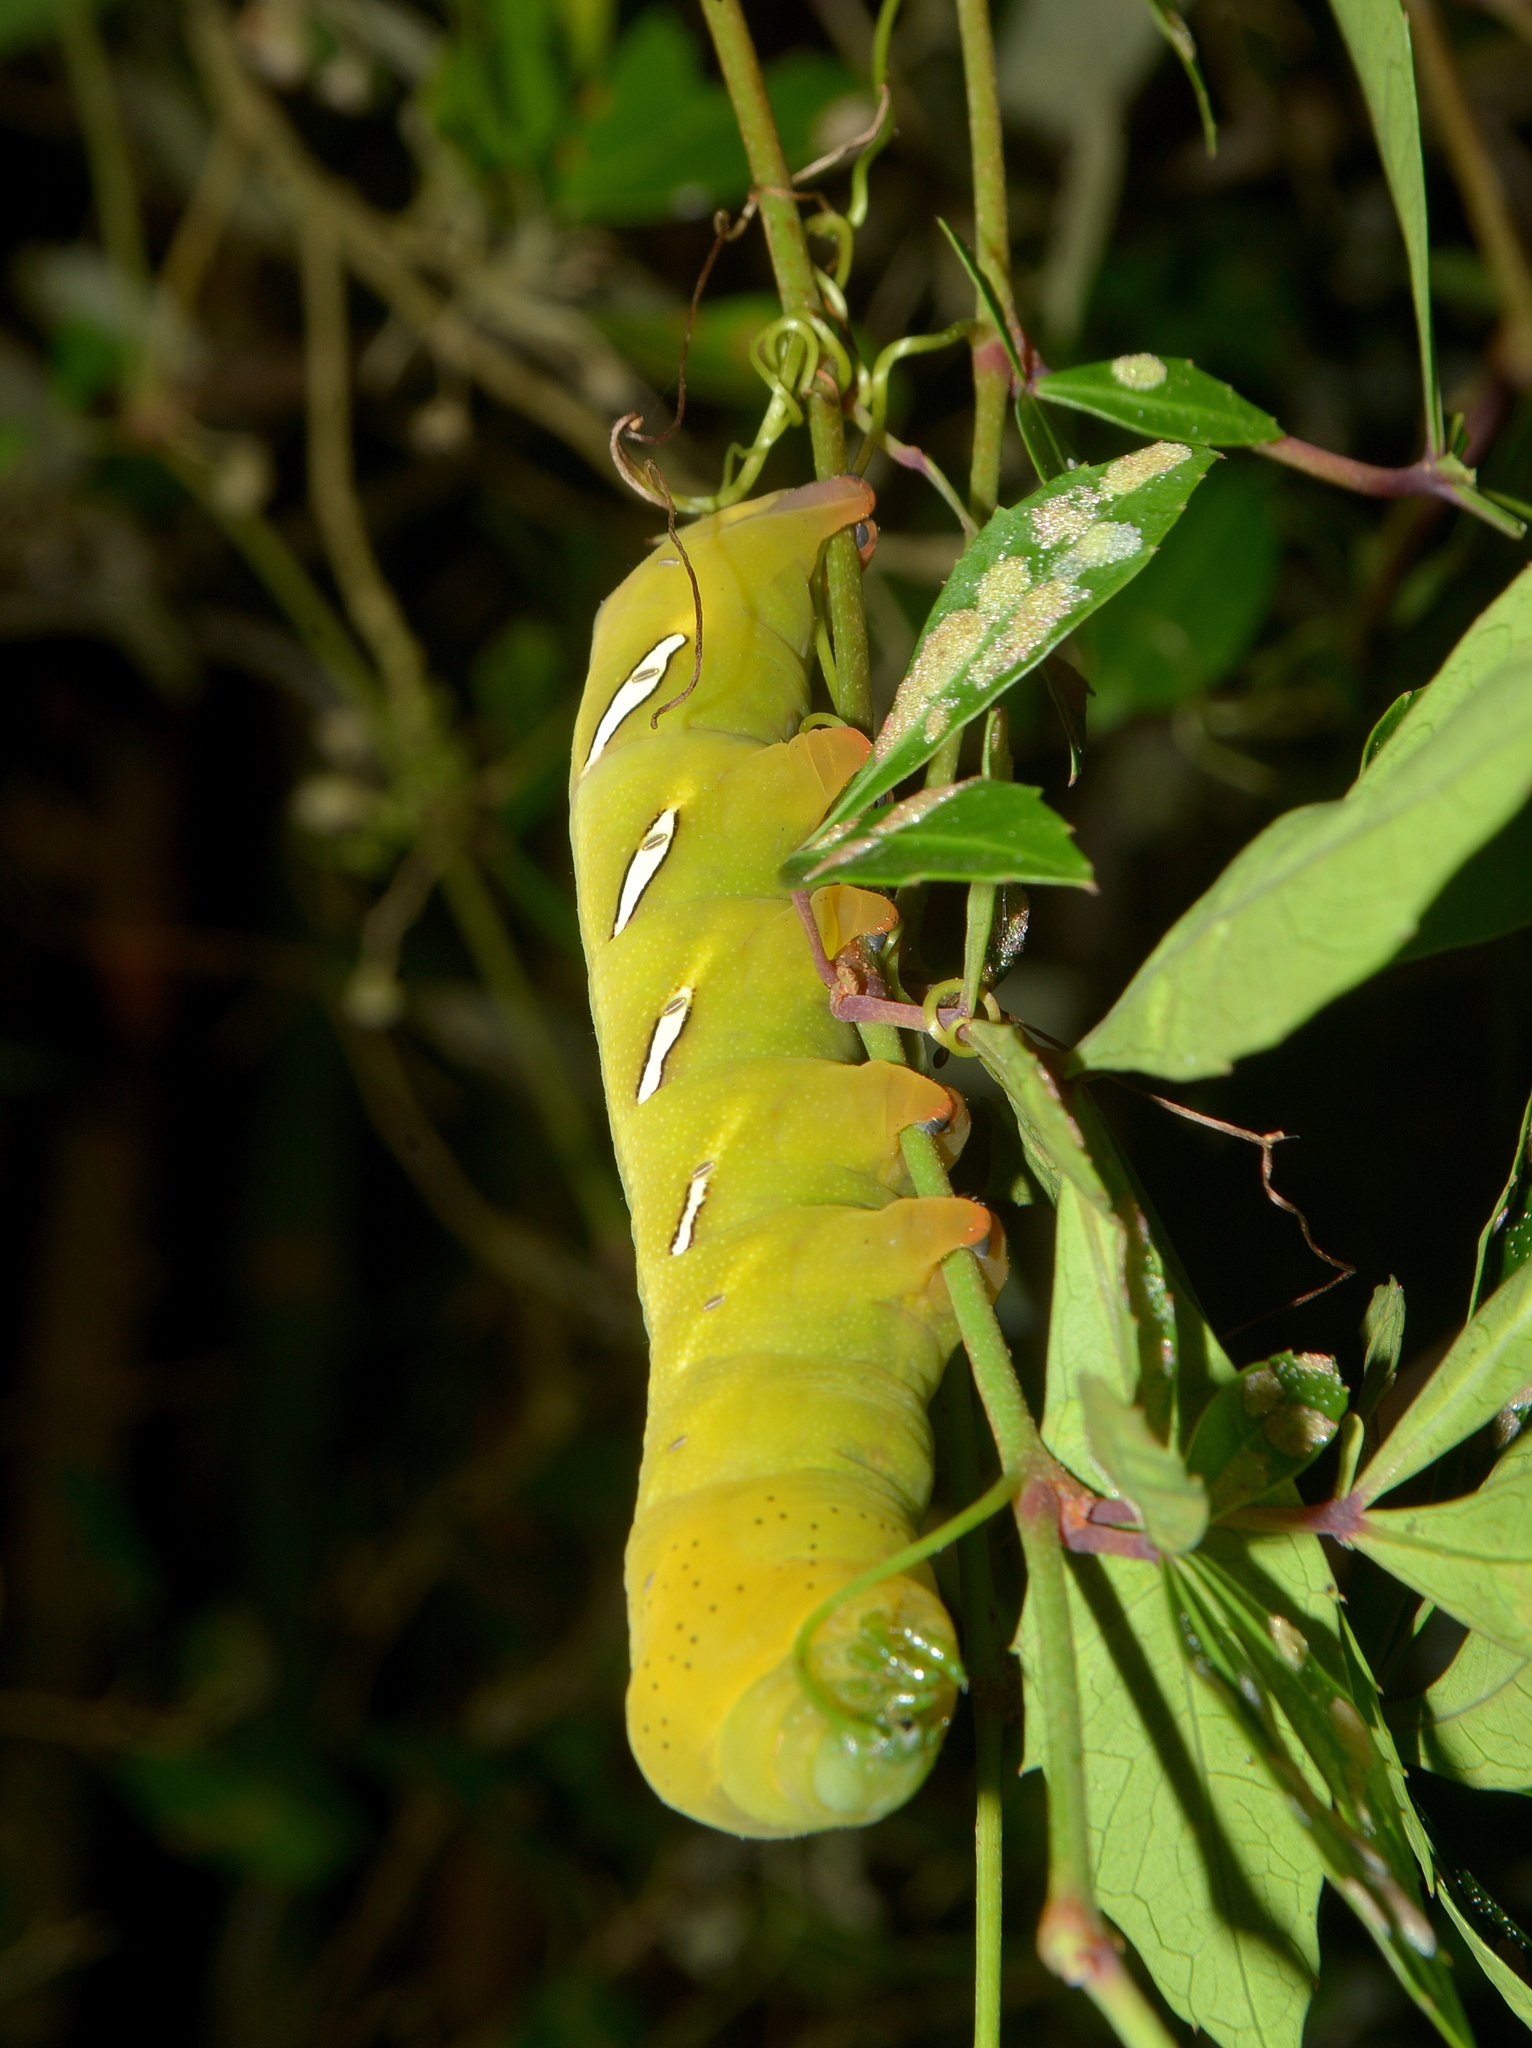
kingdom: Animalia
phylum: Arthropoda
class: Insecta
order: Lepidoptera
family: Sphingidae
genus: Eumorpha
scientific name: Eumorpha vitis
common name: Vine sphinx
